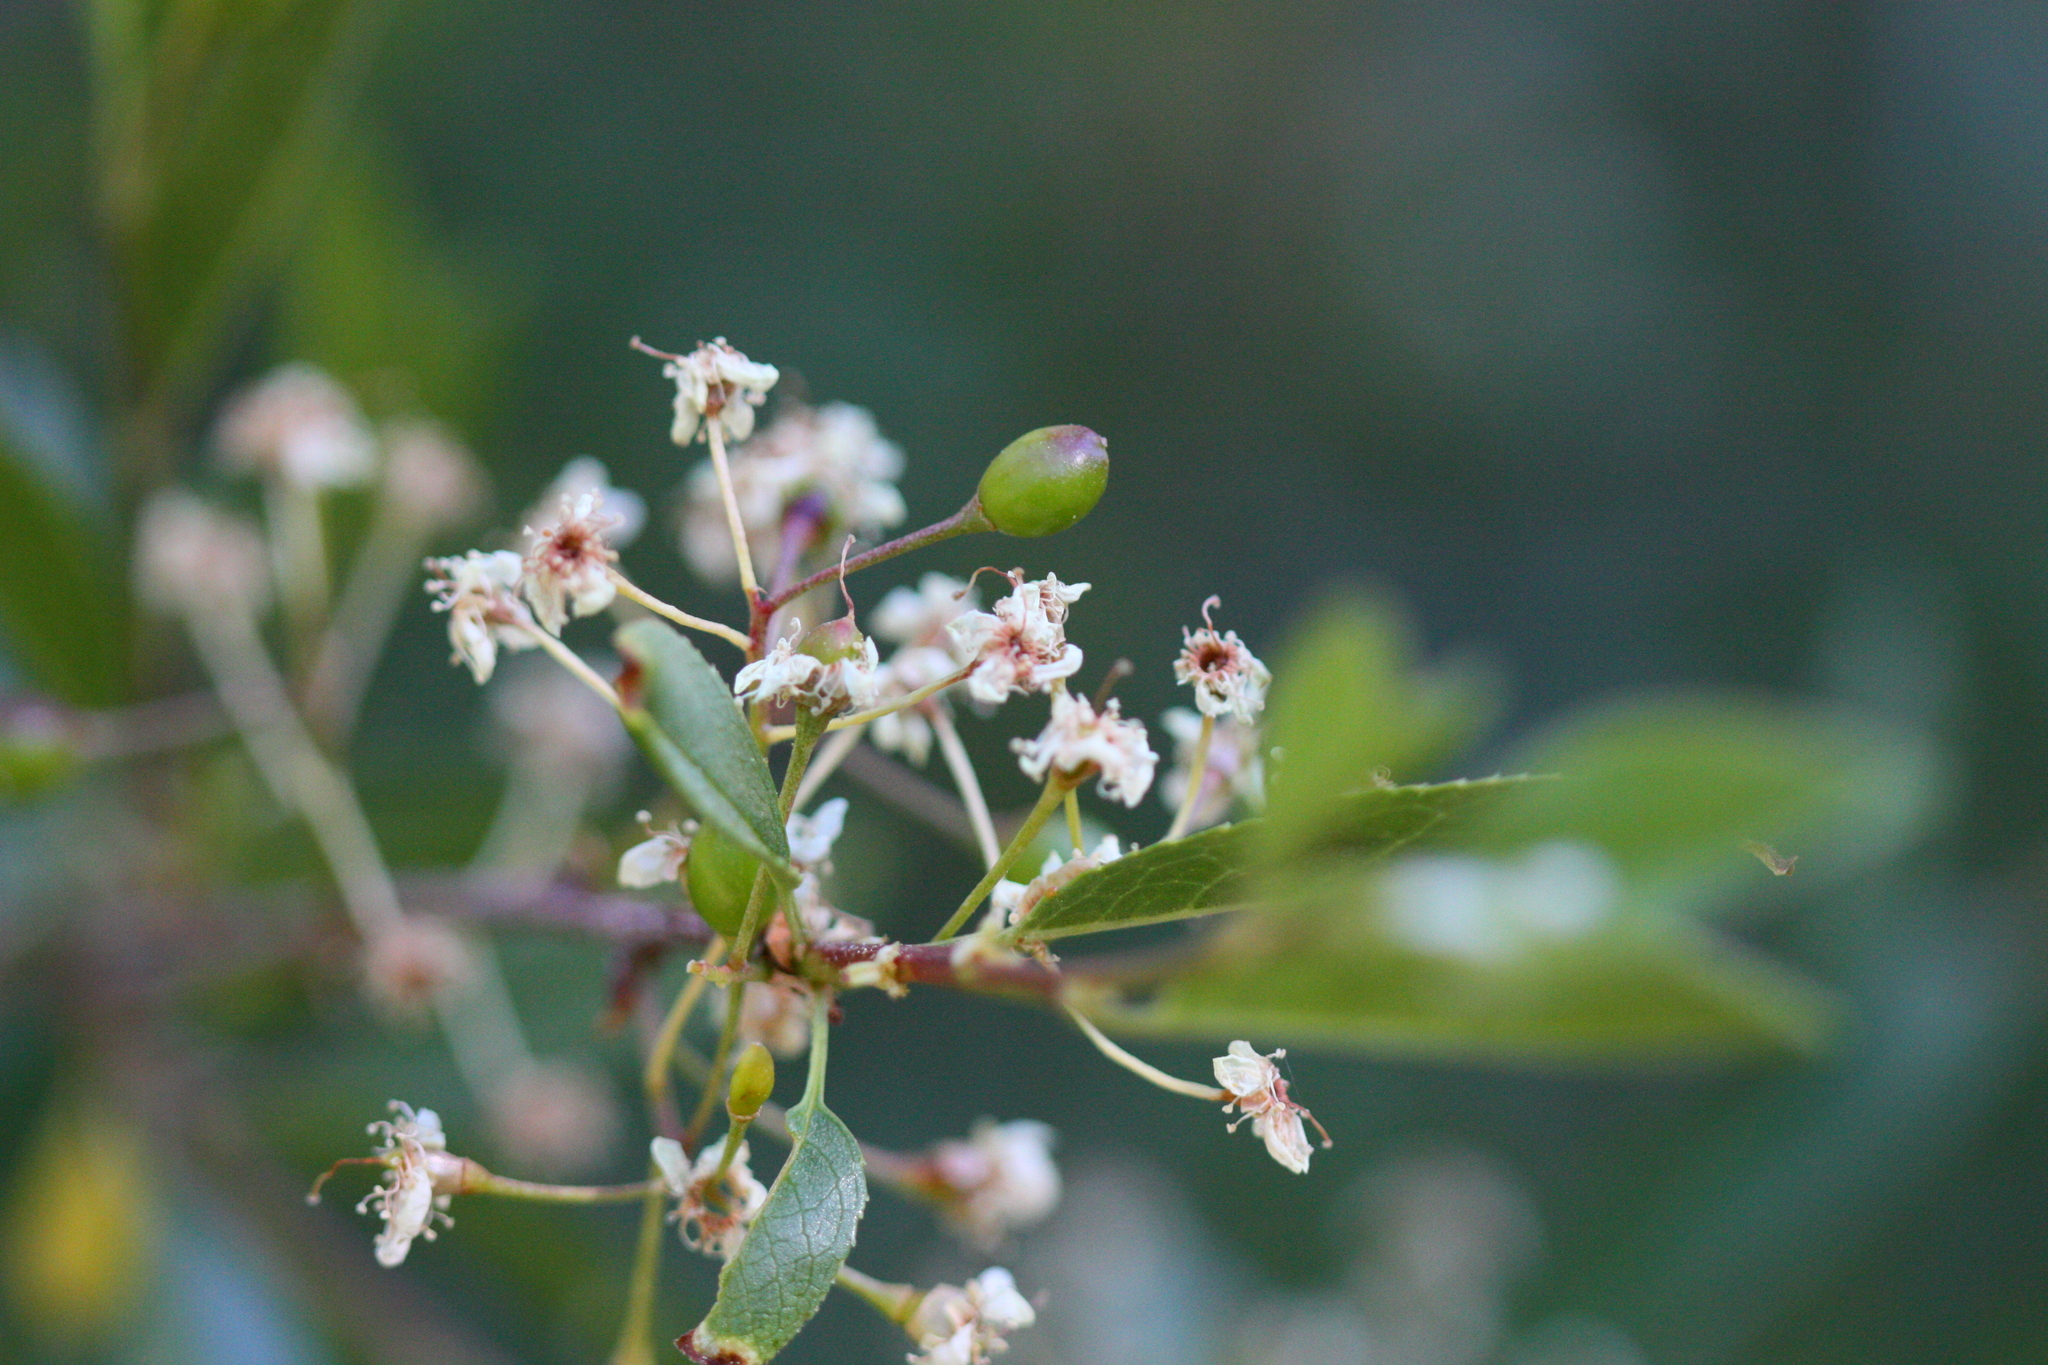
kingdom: Plantae
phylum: Tracheophyta
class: Magnoliopsida
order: Rosales
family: Rosaceae
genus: Prunus
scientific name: Prunus emarginata
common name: Bitter cherry
